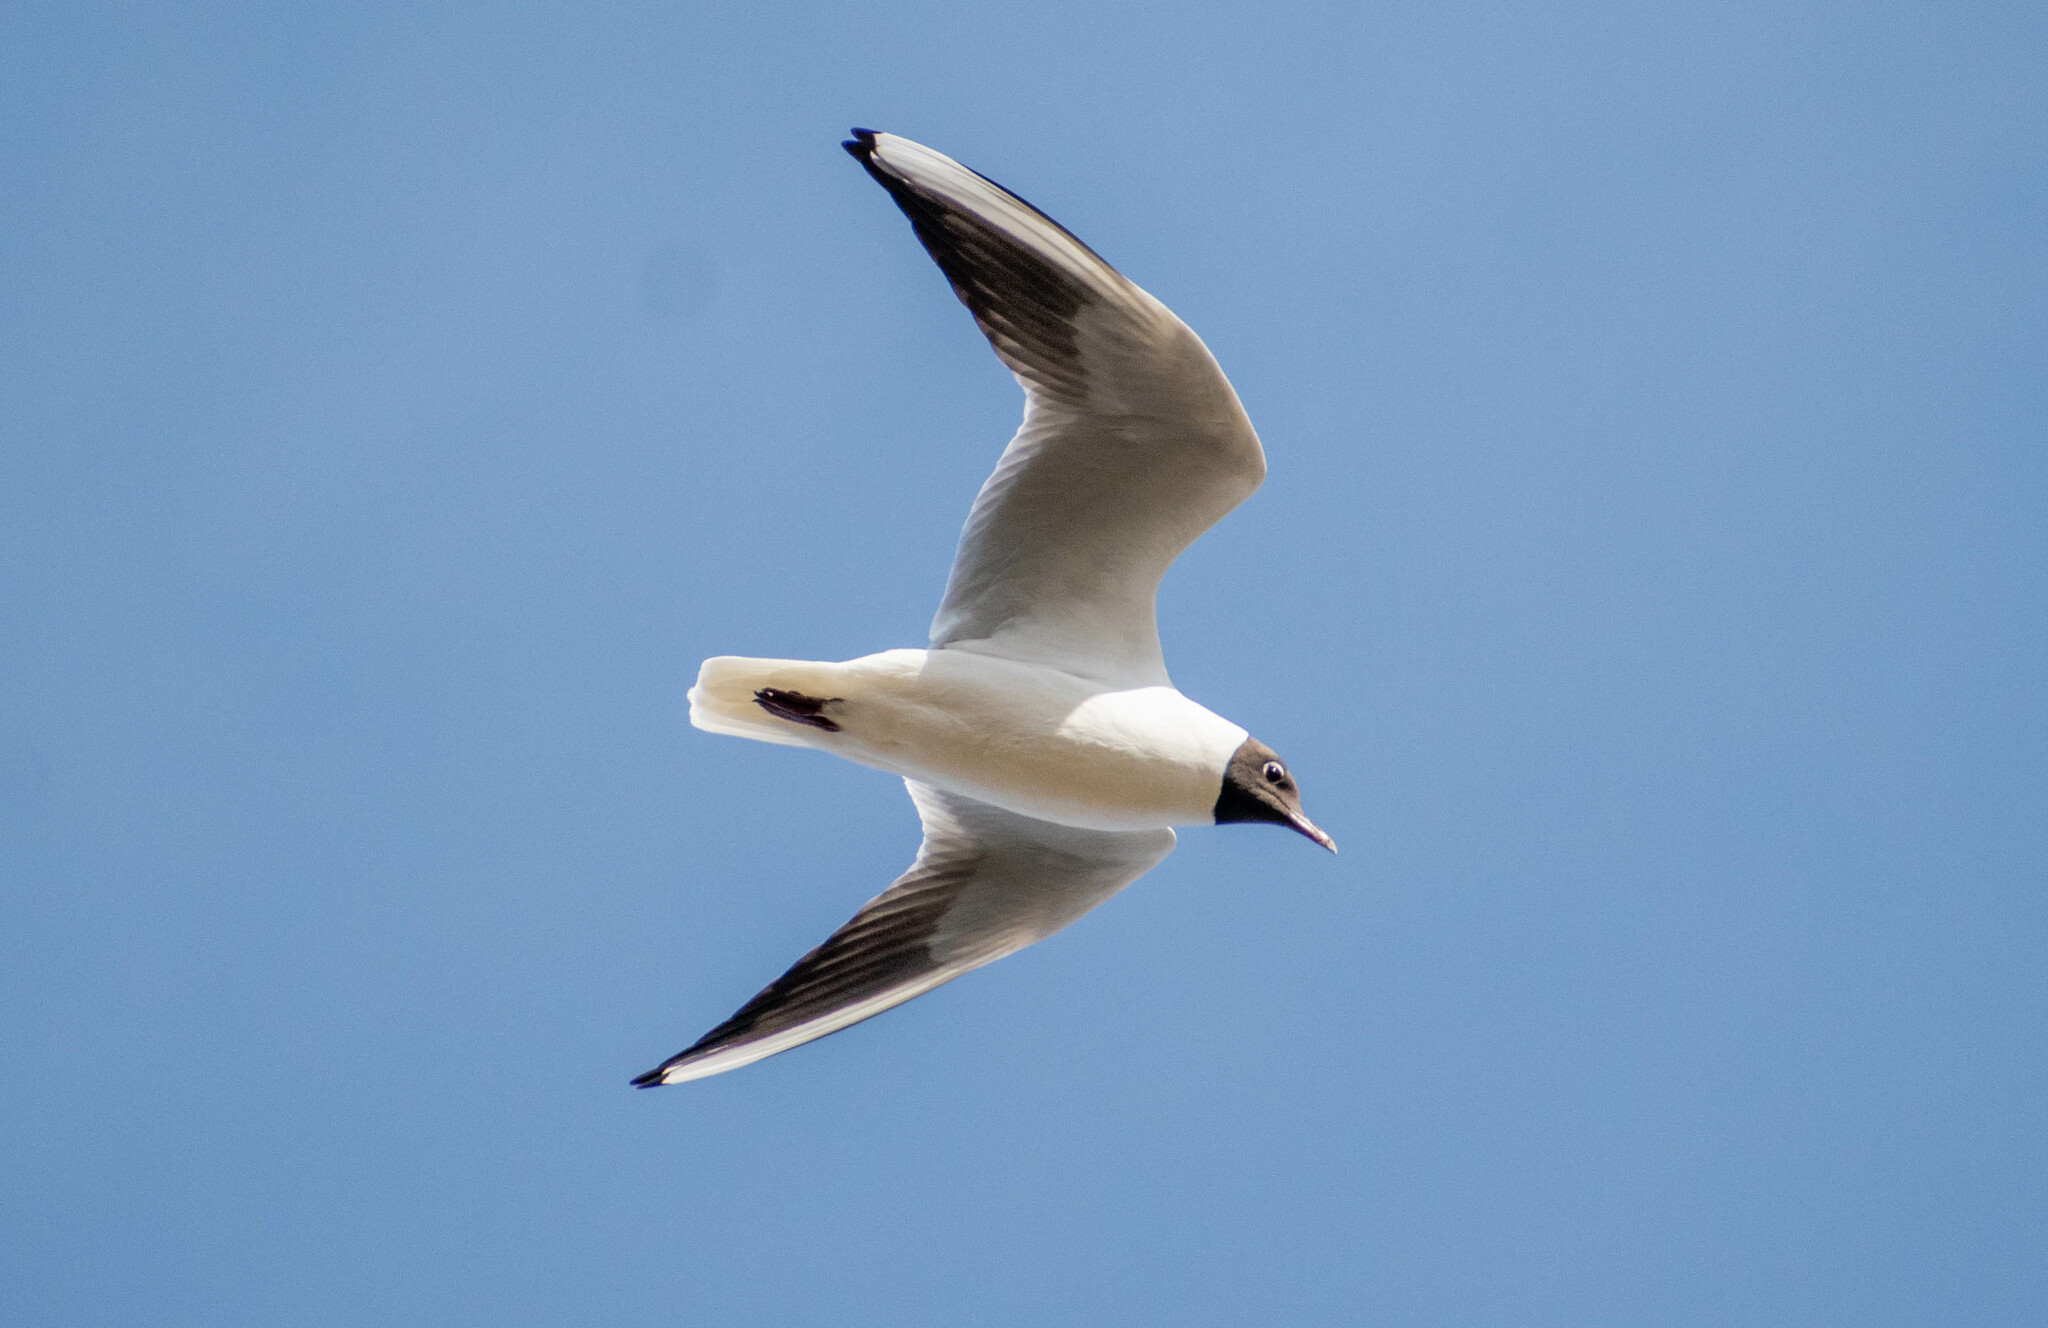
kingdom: Animalia
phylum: Chordata
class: Aves
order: Charadriiformes
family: Laridae
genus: Chroicocephalus
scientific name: Chroicocephalus ridibundus
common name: Black-headed gull
